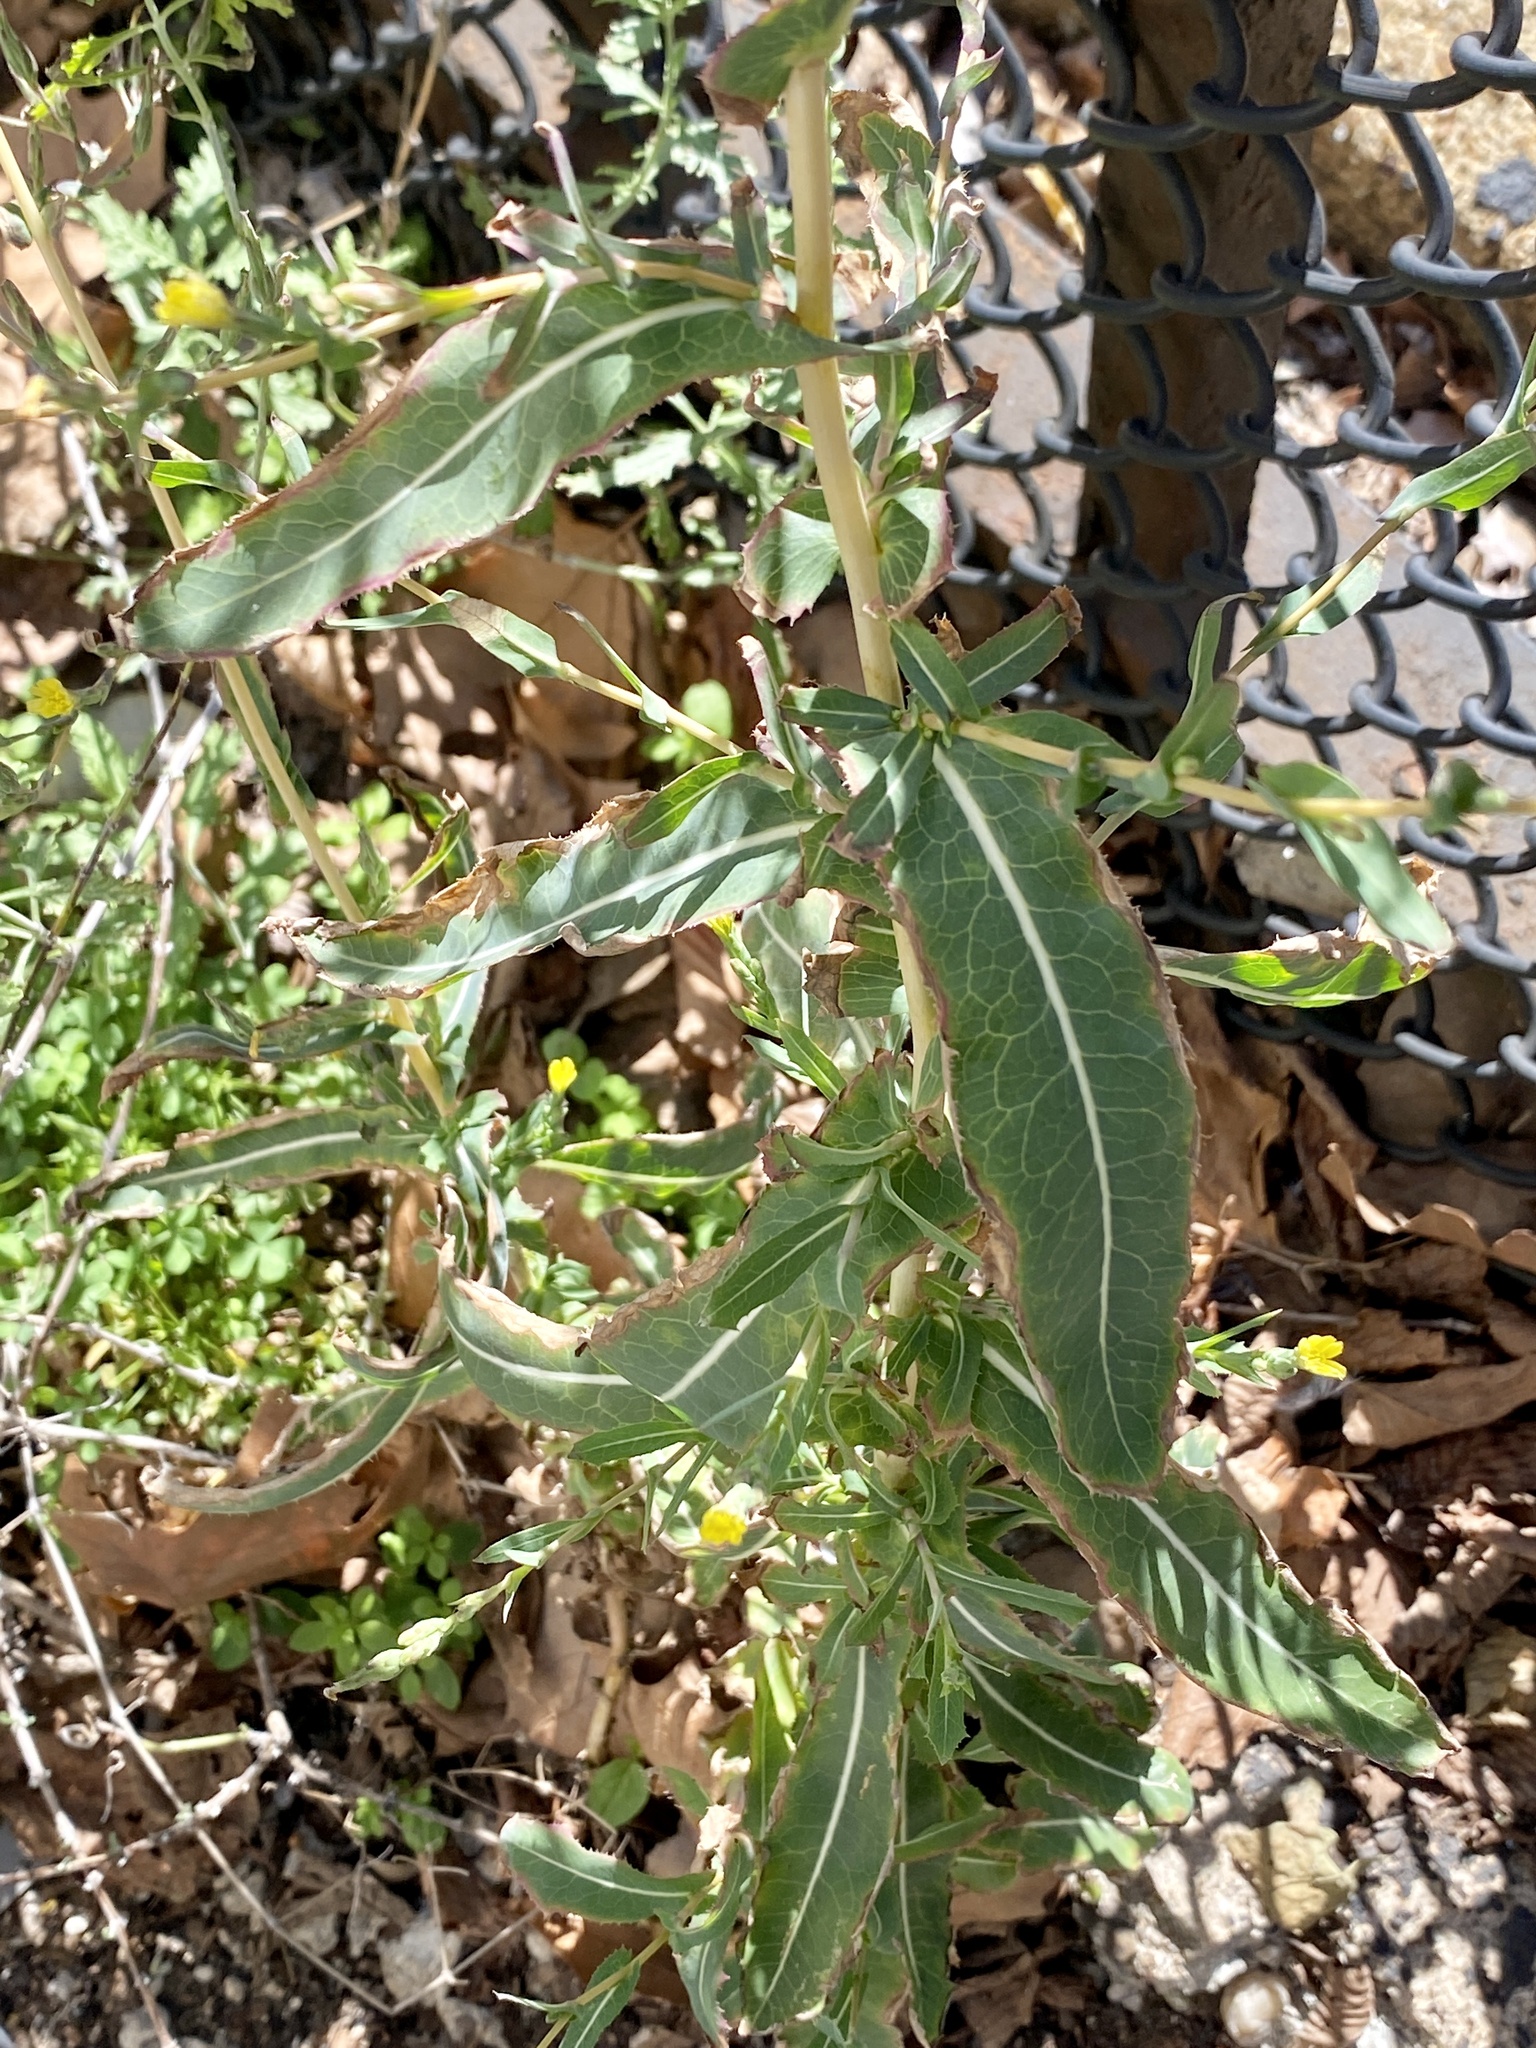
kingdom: Plantae
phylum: Tracheophyta
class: Magnoliopsida
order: Asterales
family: Asteraceae
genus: Lactuca
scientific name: Lactuca serriola
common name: Prickly lettuce
